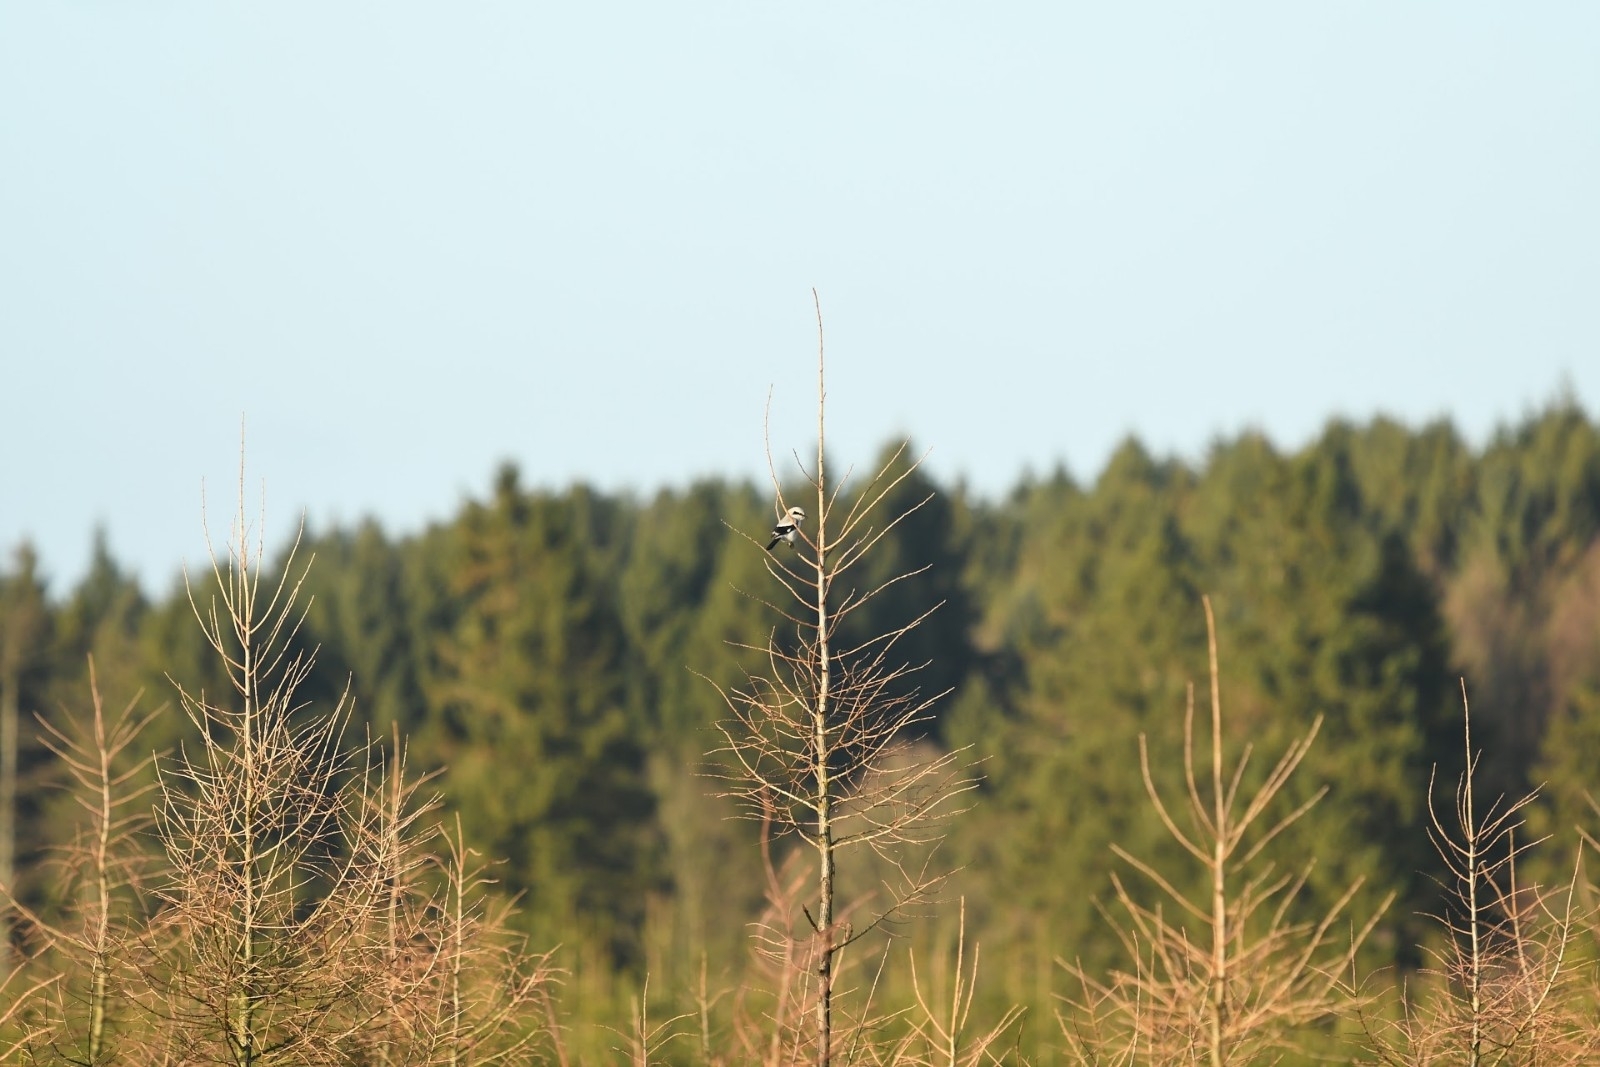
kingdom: Animalia
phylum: Chordata
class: Aves
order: Passeriformes
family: Laniidae
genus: Lanius
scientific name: Lanius excubitor
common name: Great grey shrike
